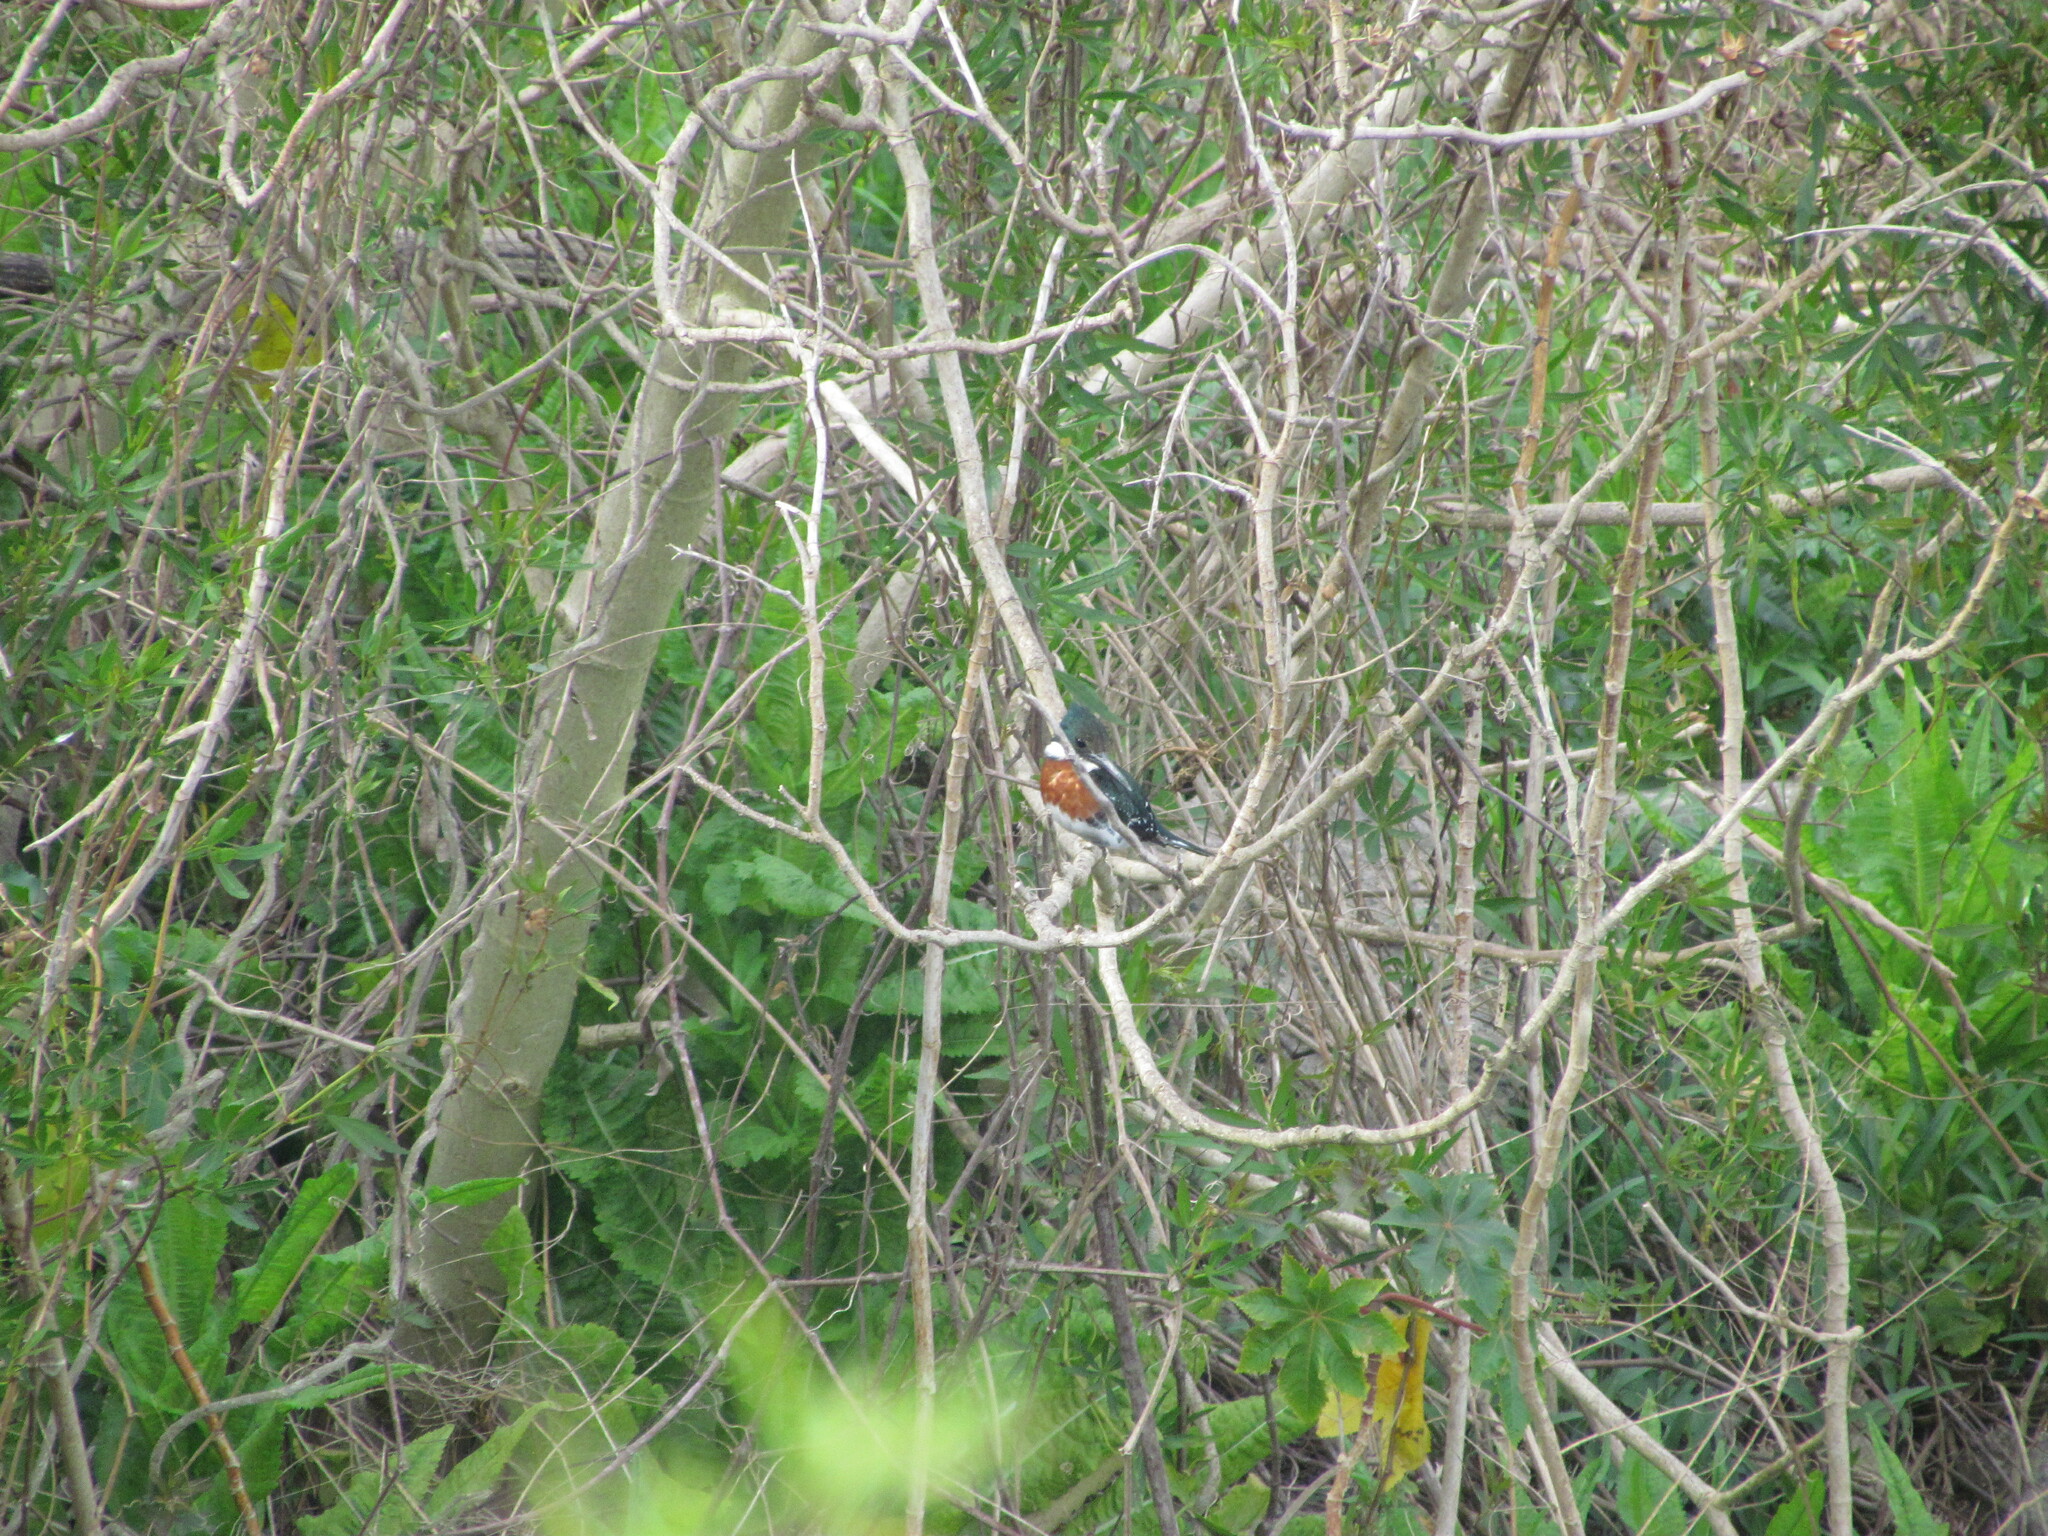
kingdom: Animalia
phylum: Chordata
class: Aves
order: Coraciiformes
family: Alcedinidae
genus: Chloroceryle
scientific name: Chloroceryle americana
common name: Green kingfisher
